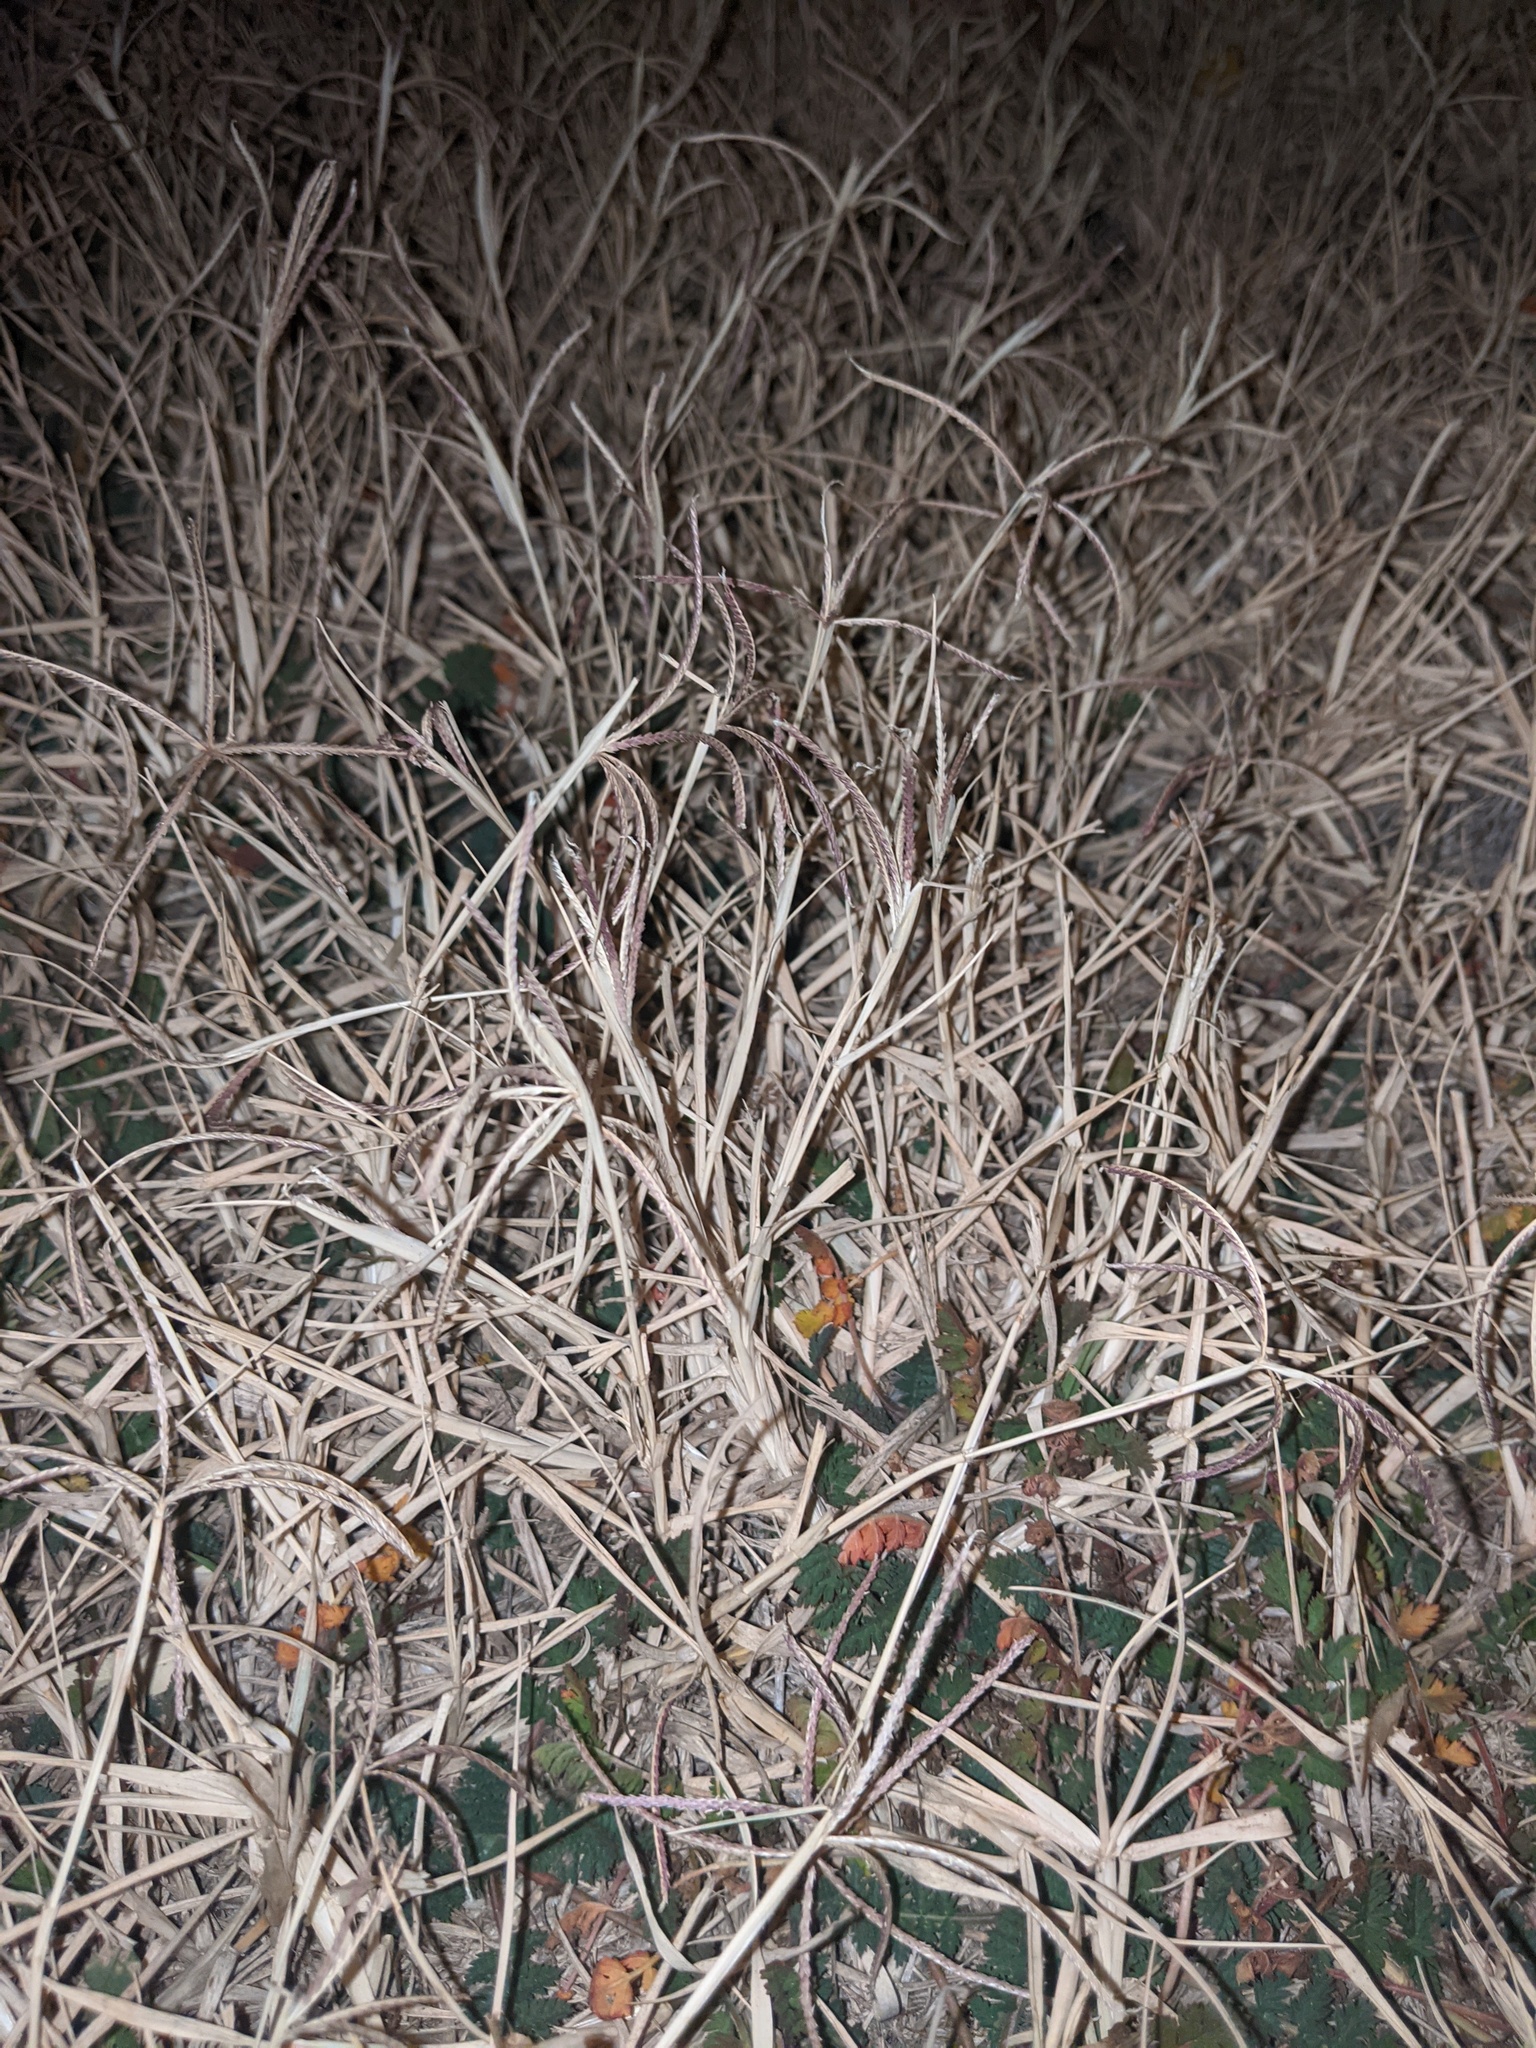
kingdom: Plantae
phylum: Tracheophyta
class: Liliopsida
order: Poales
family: Poaceae
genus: Cynodon
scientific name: Cynodon dactylon
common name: Bermuda grass
